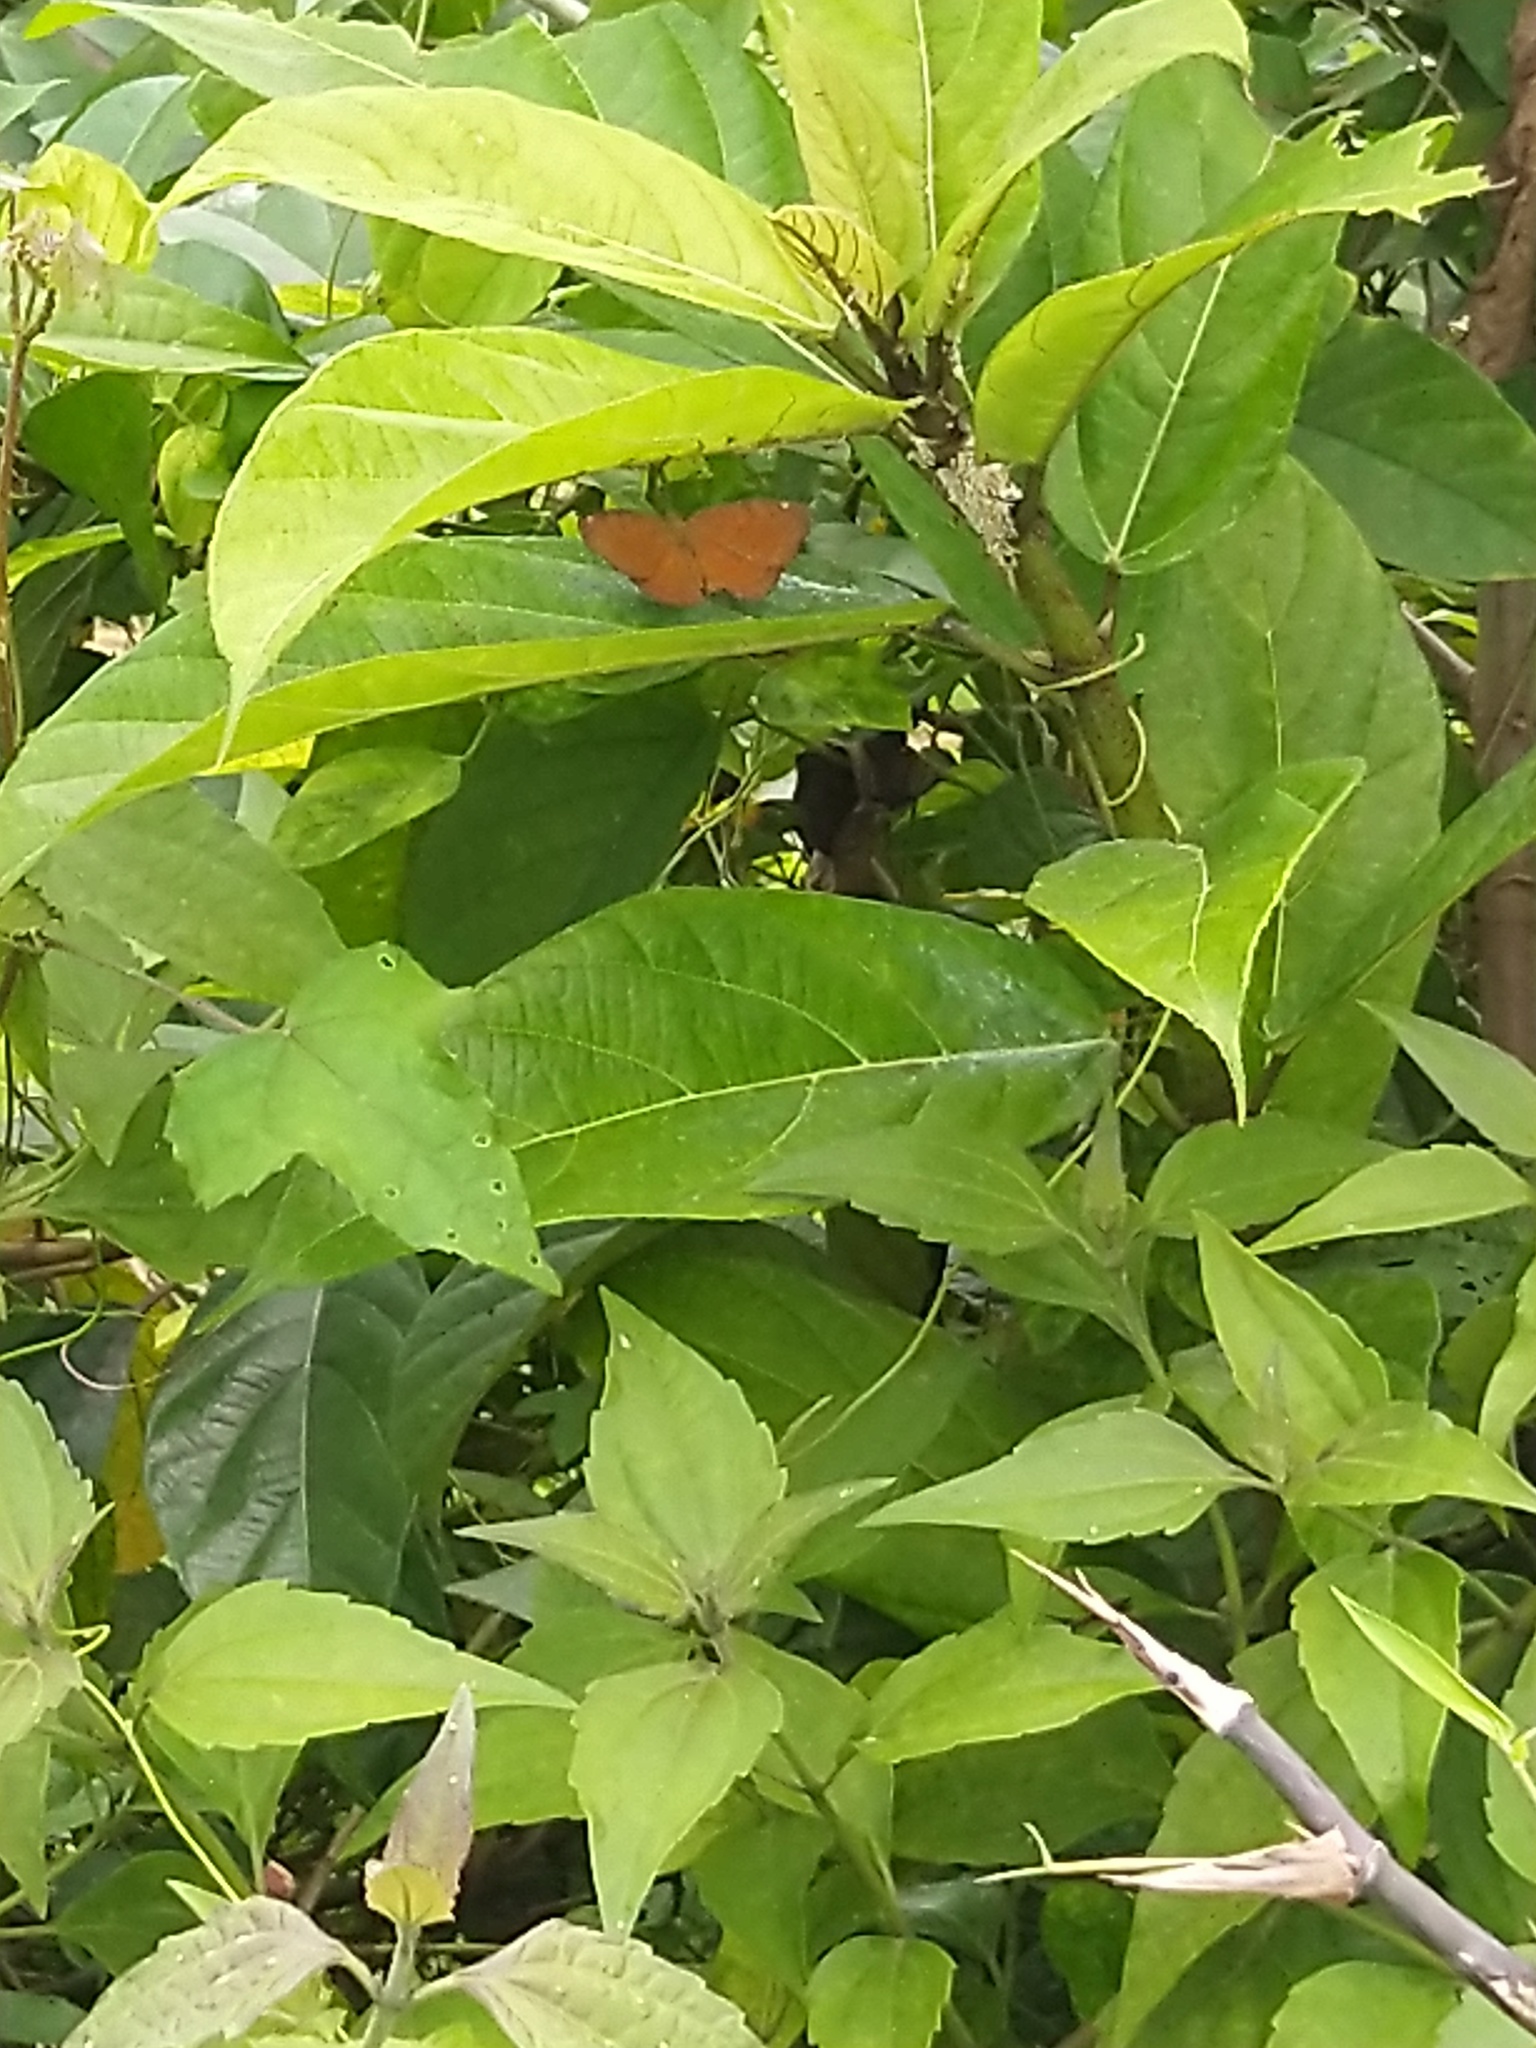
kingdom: Animalia
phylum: Arthropoda
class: Insecta
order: Lepidoptera
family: Nymphalidae
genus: Ariadne
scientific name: Ariadne ariadne
